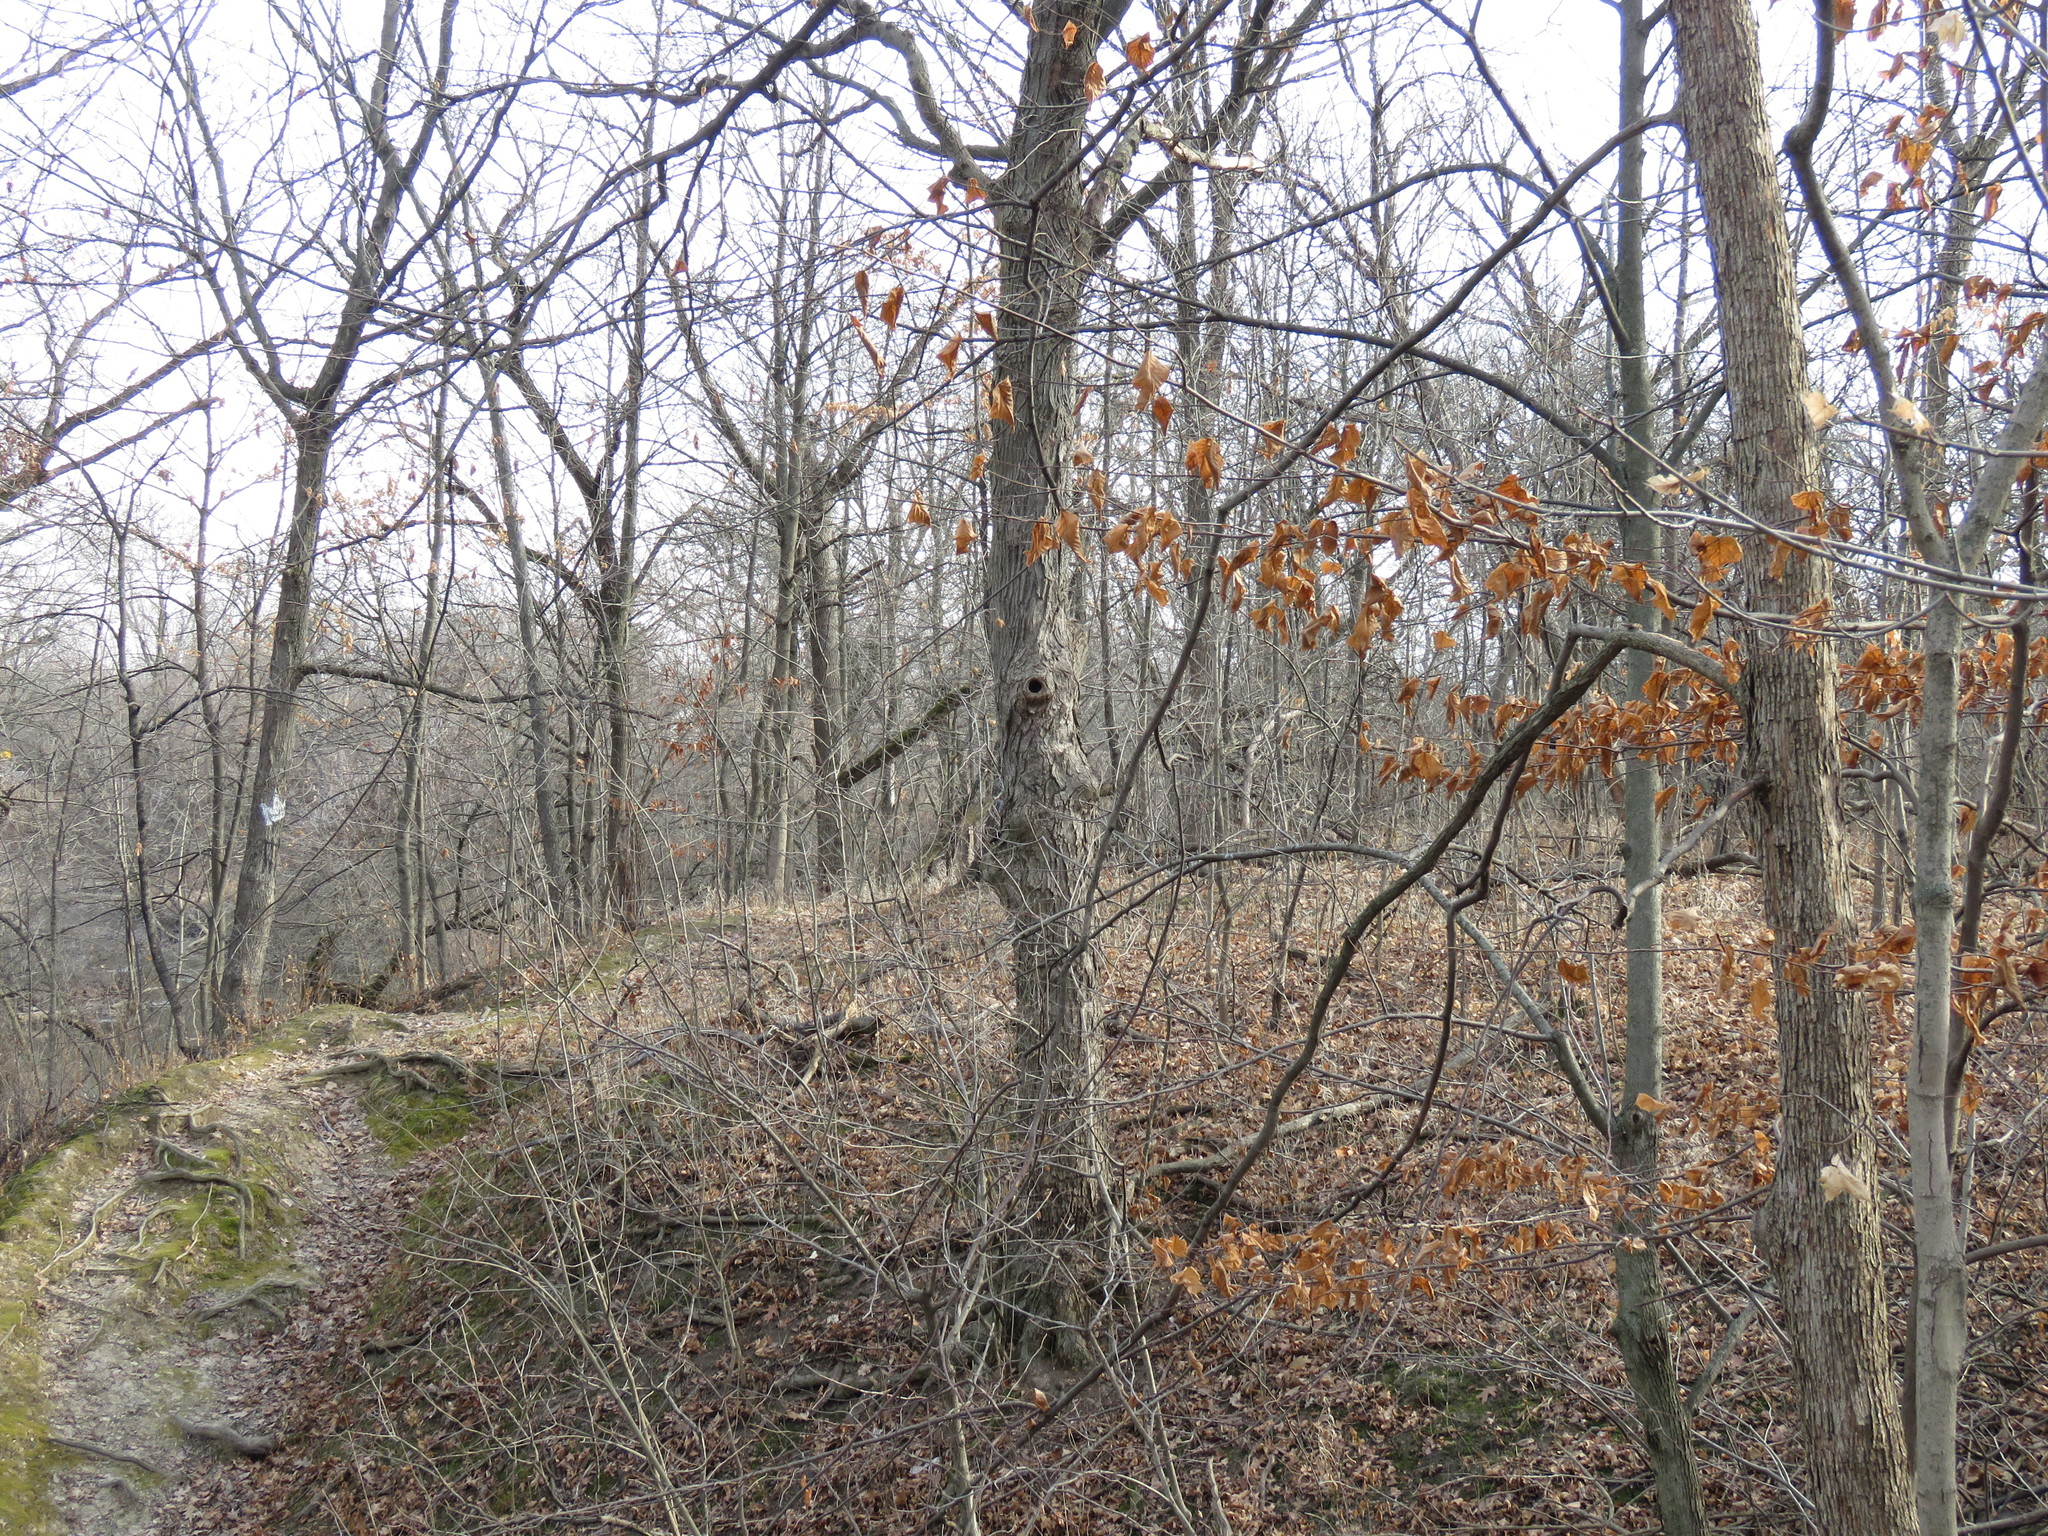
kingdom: Animalia
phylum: Chordata
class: Mammalia
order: Carnivora
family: Mustelidae
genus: Mustela
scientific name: Mustela
